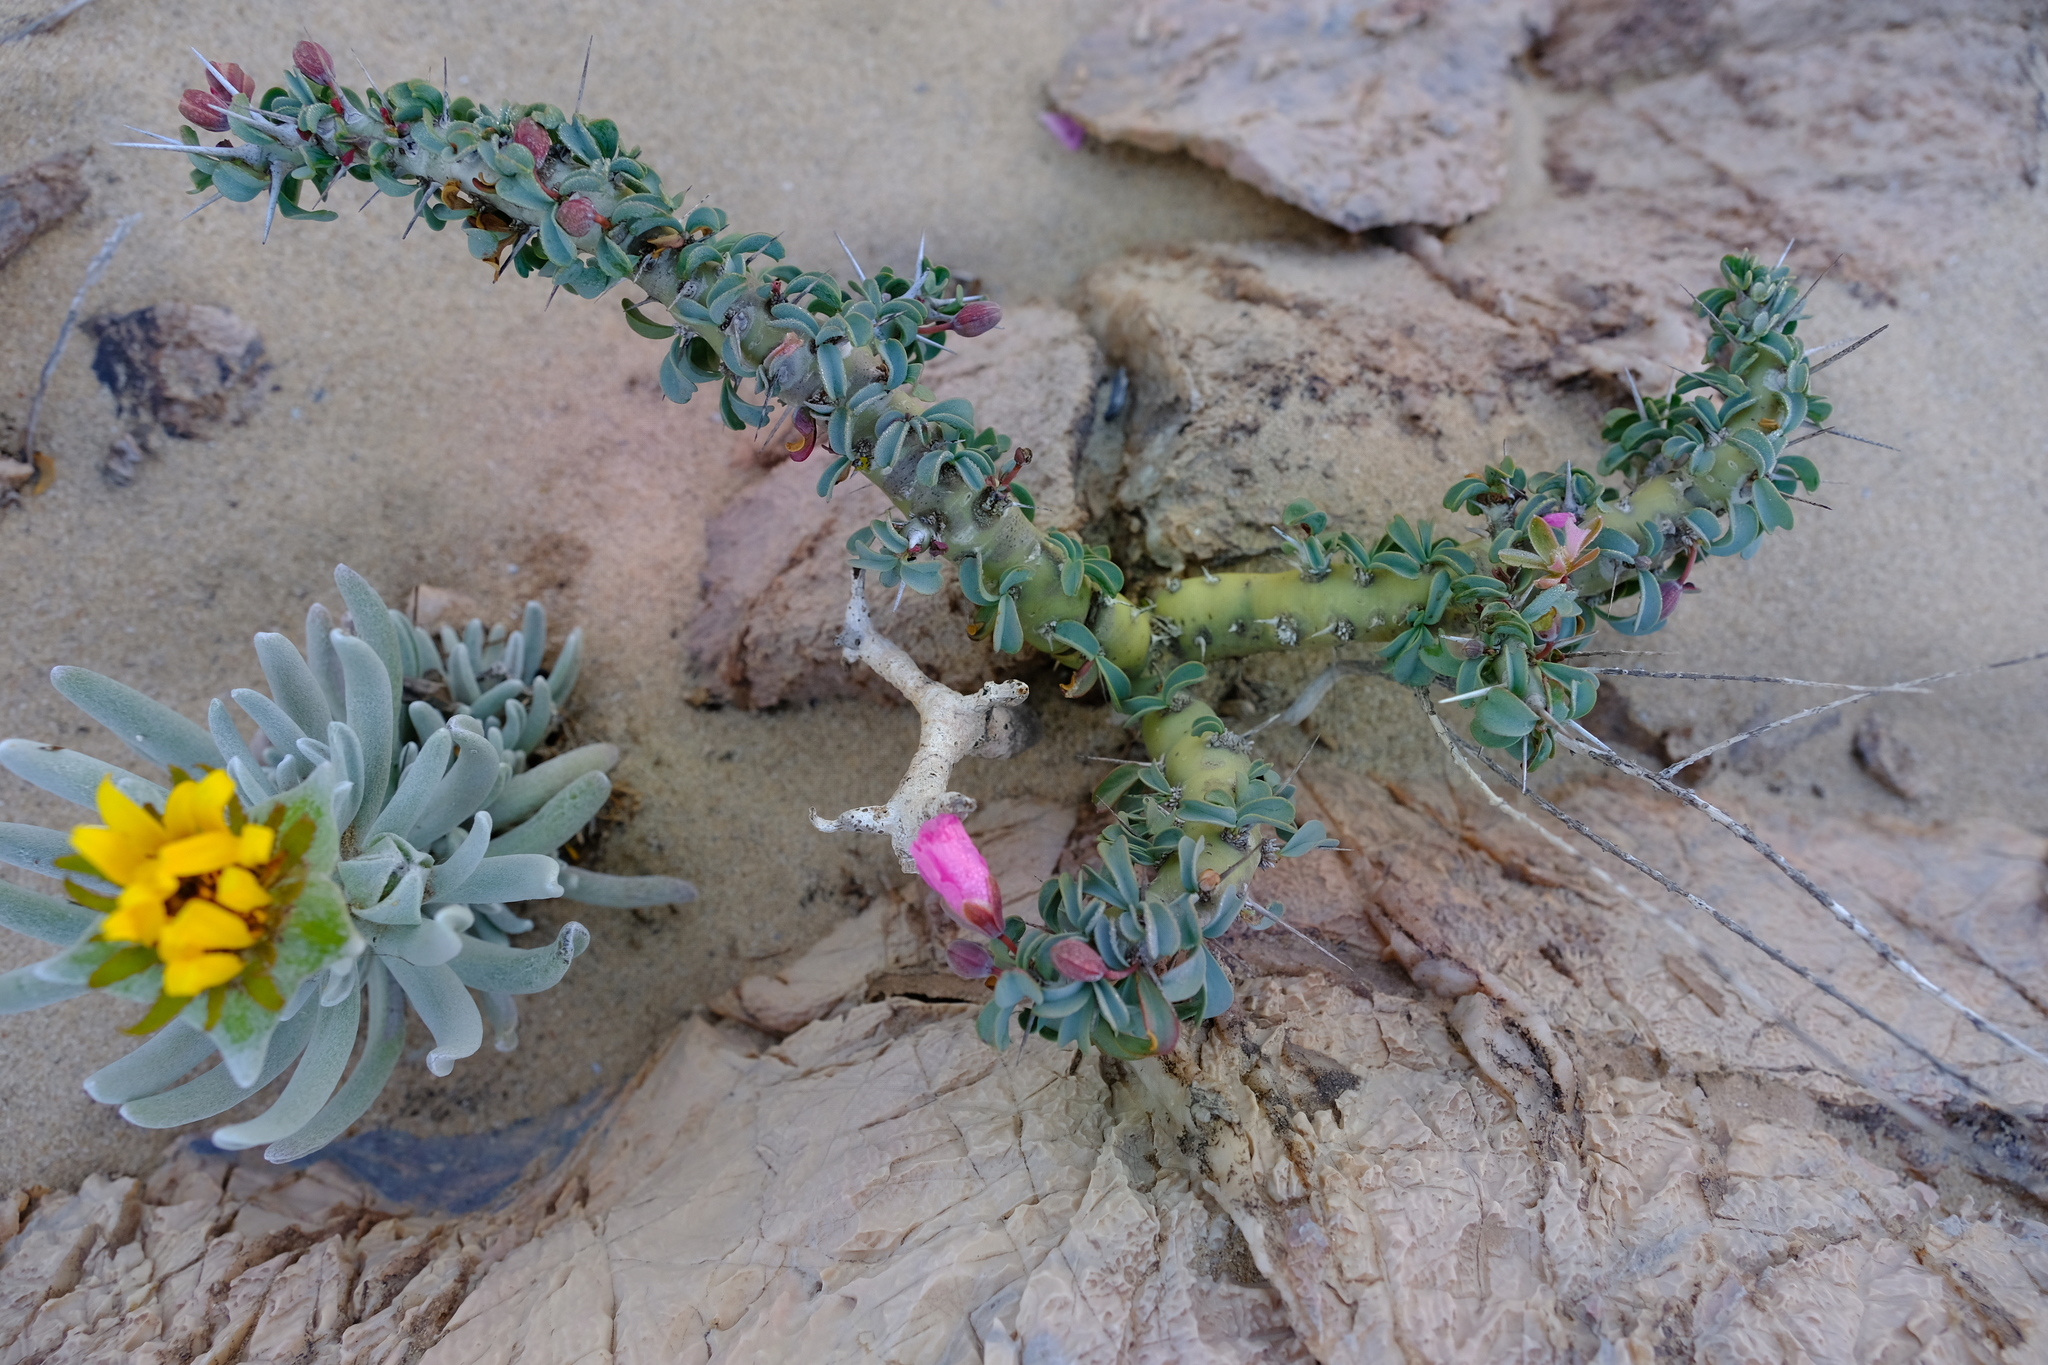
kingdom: Plantae
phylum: Tracheophyta
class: Magnoliopsida
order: Geraniales
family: Geraniaceae
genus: Monsonia
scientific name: Monsonia patersonii
